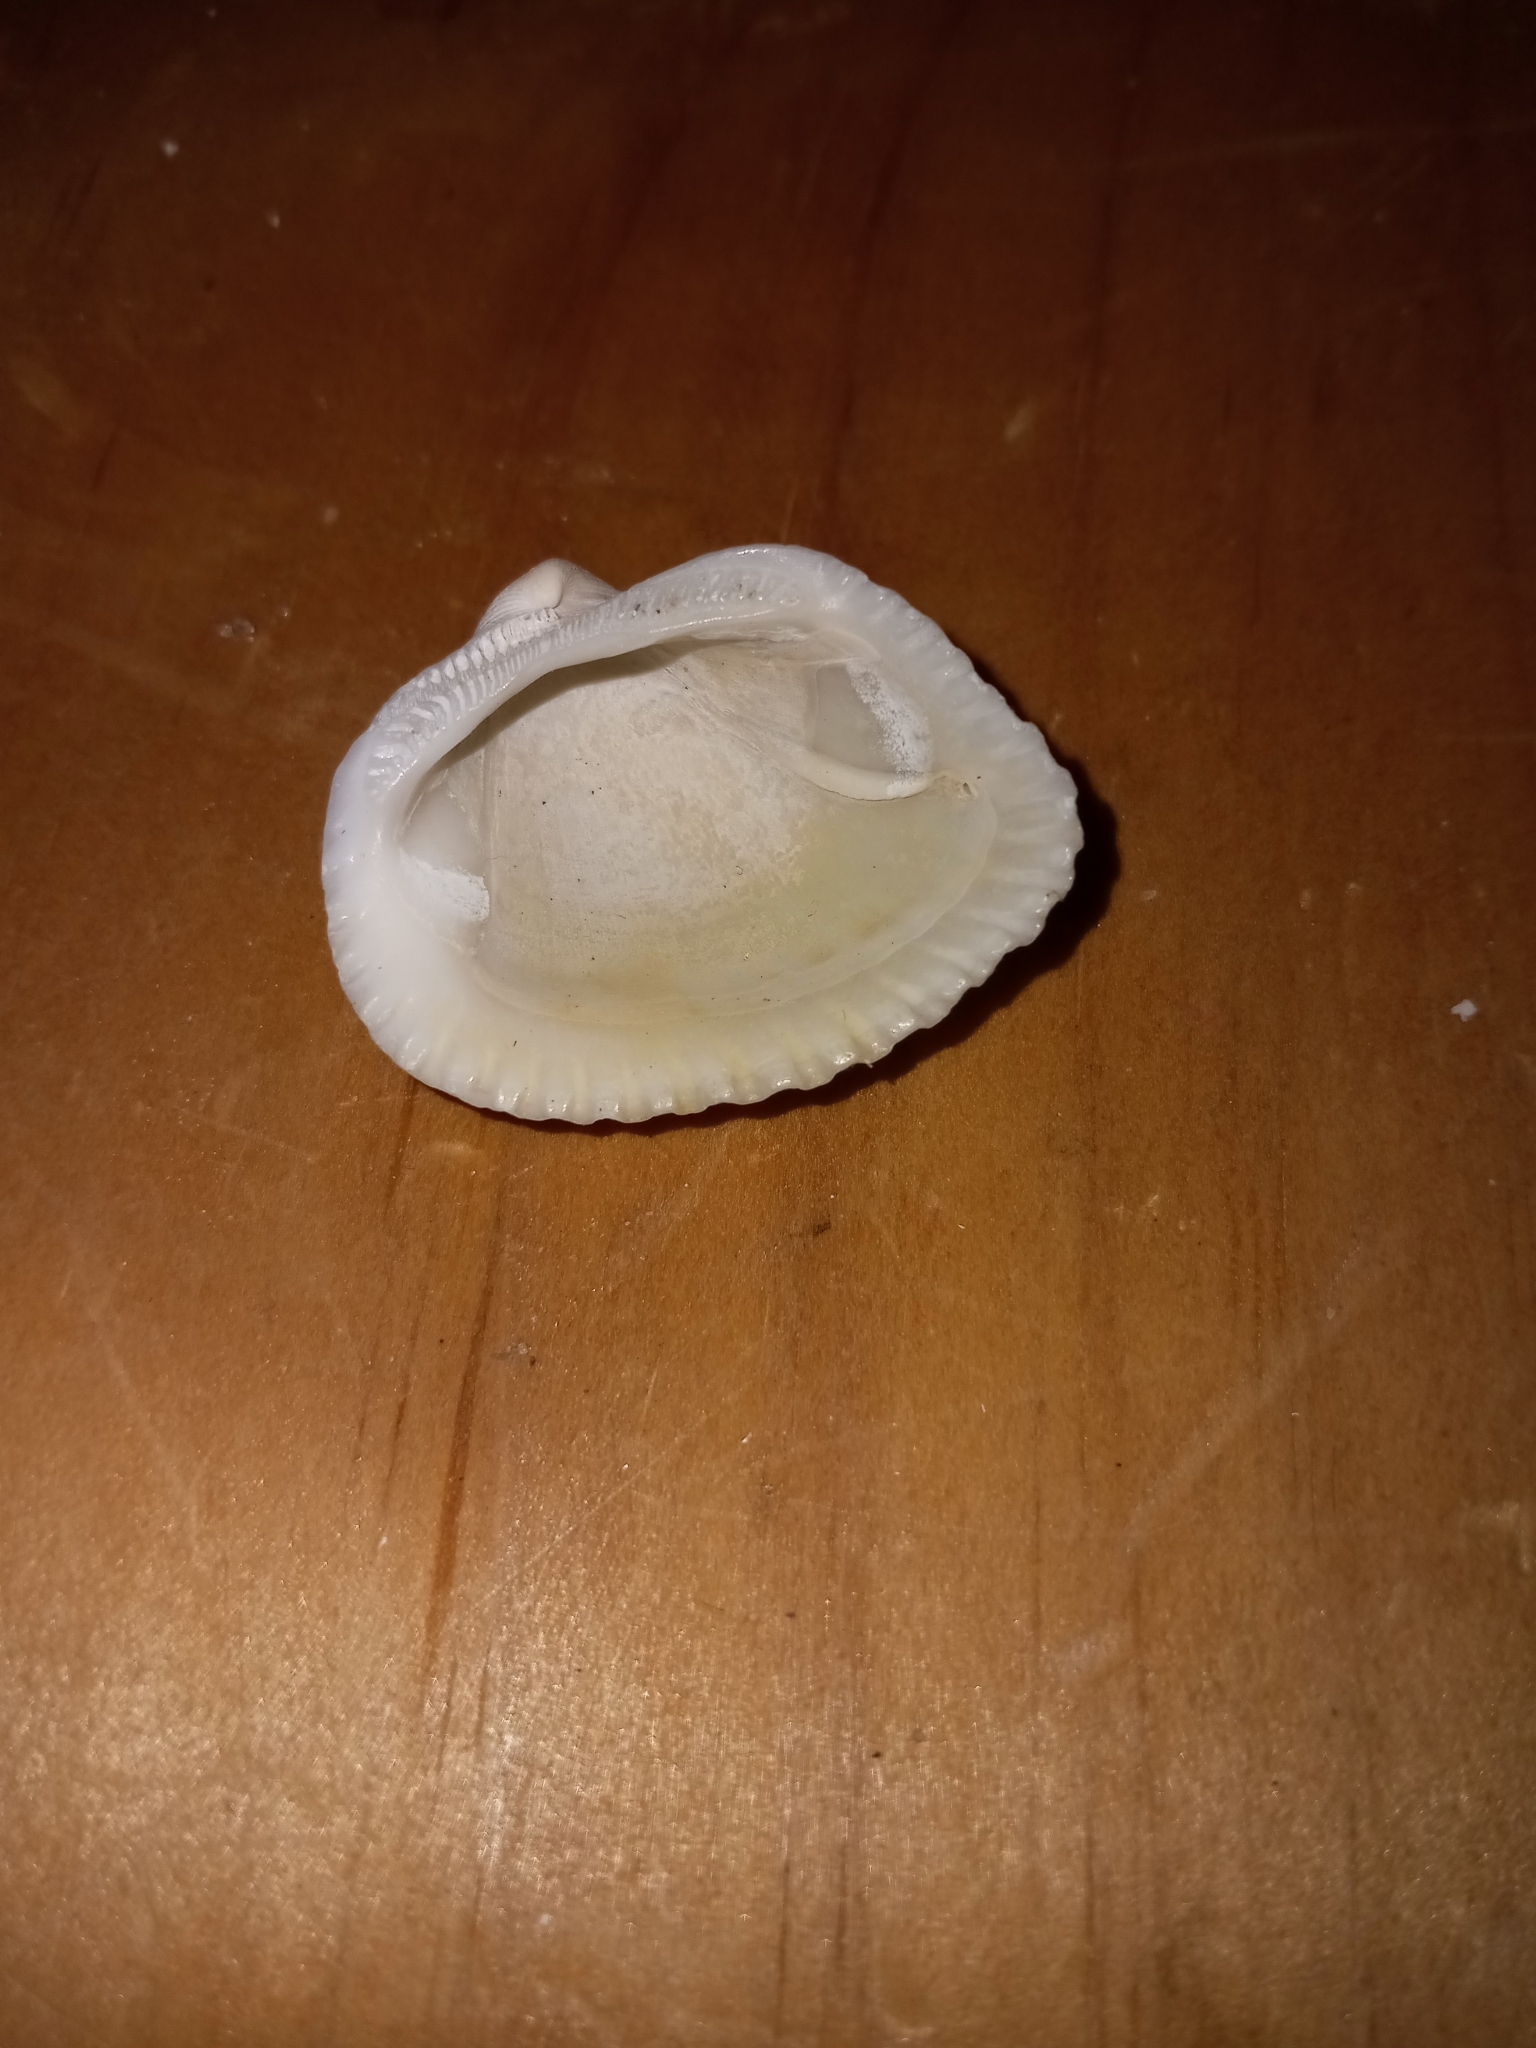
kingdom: Animalia
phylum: Mollusca
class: Bivalvia
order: Arcida
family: Arcidae
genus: Lunarca
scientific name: Lunarca ovalis
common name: Blood ark
